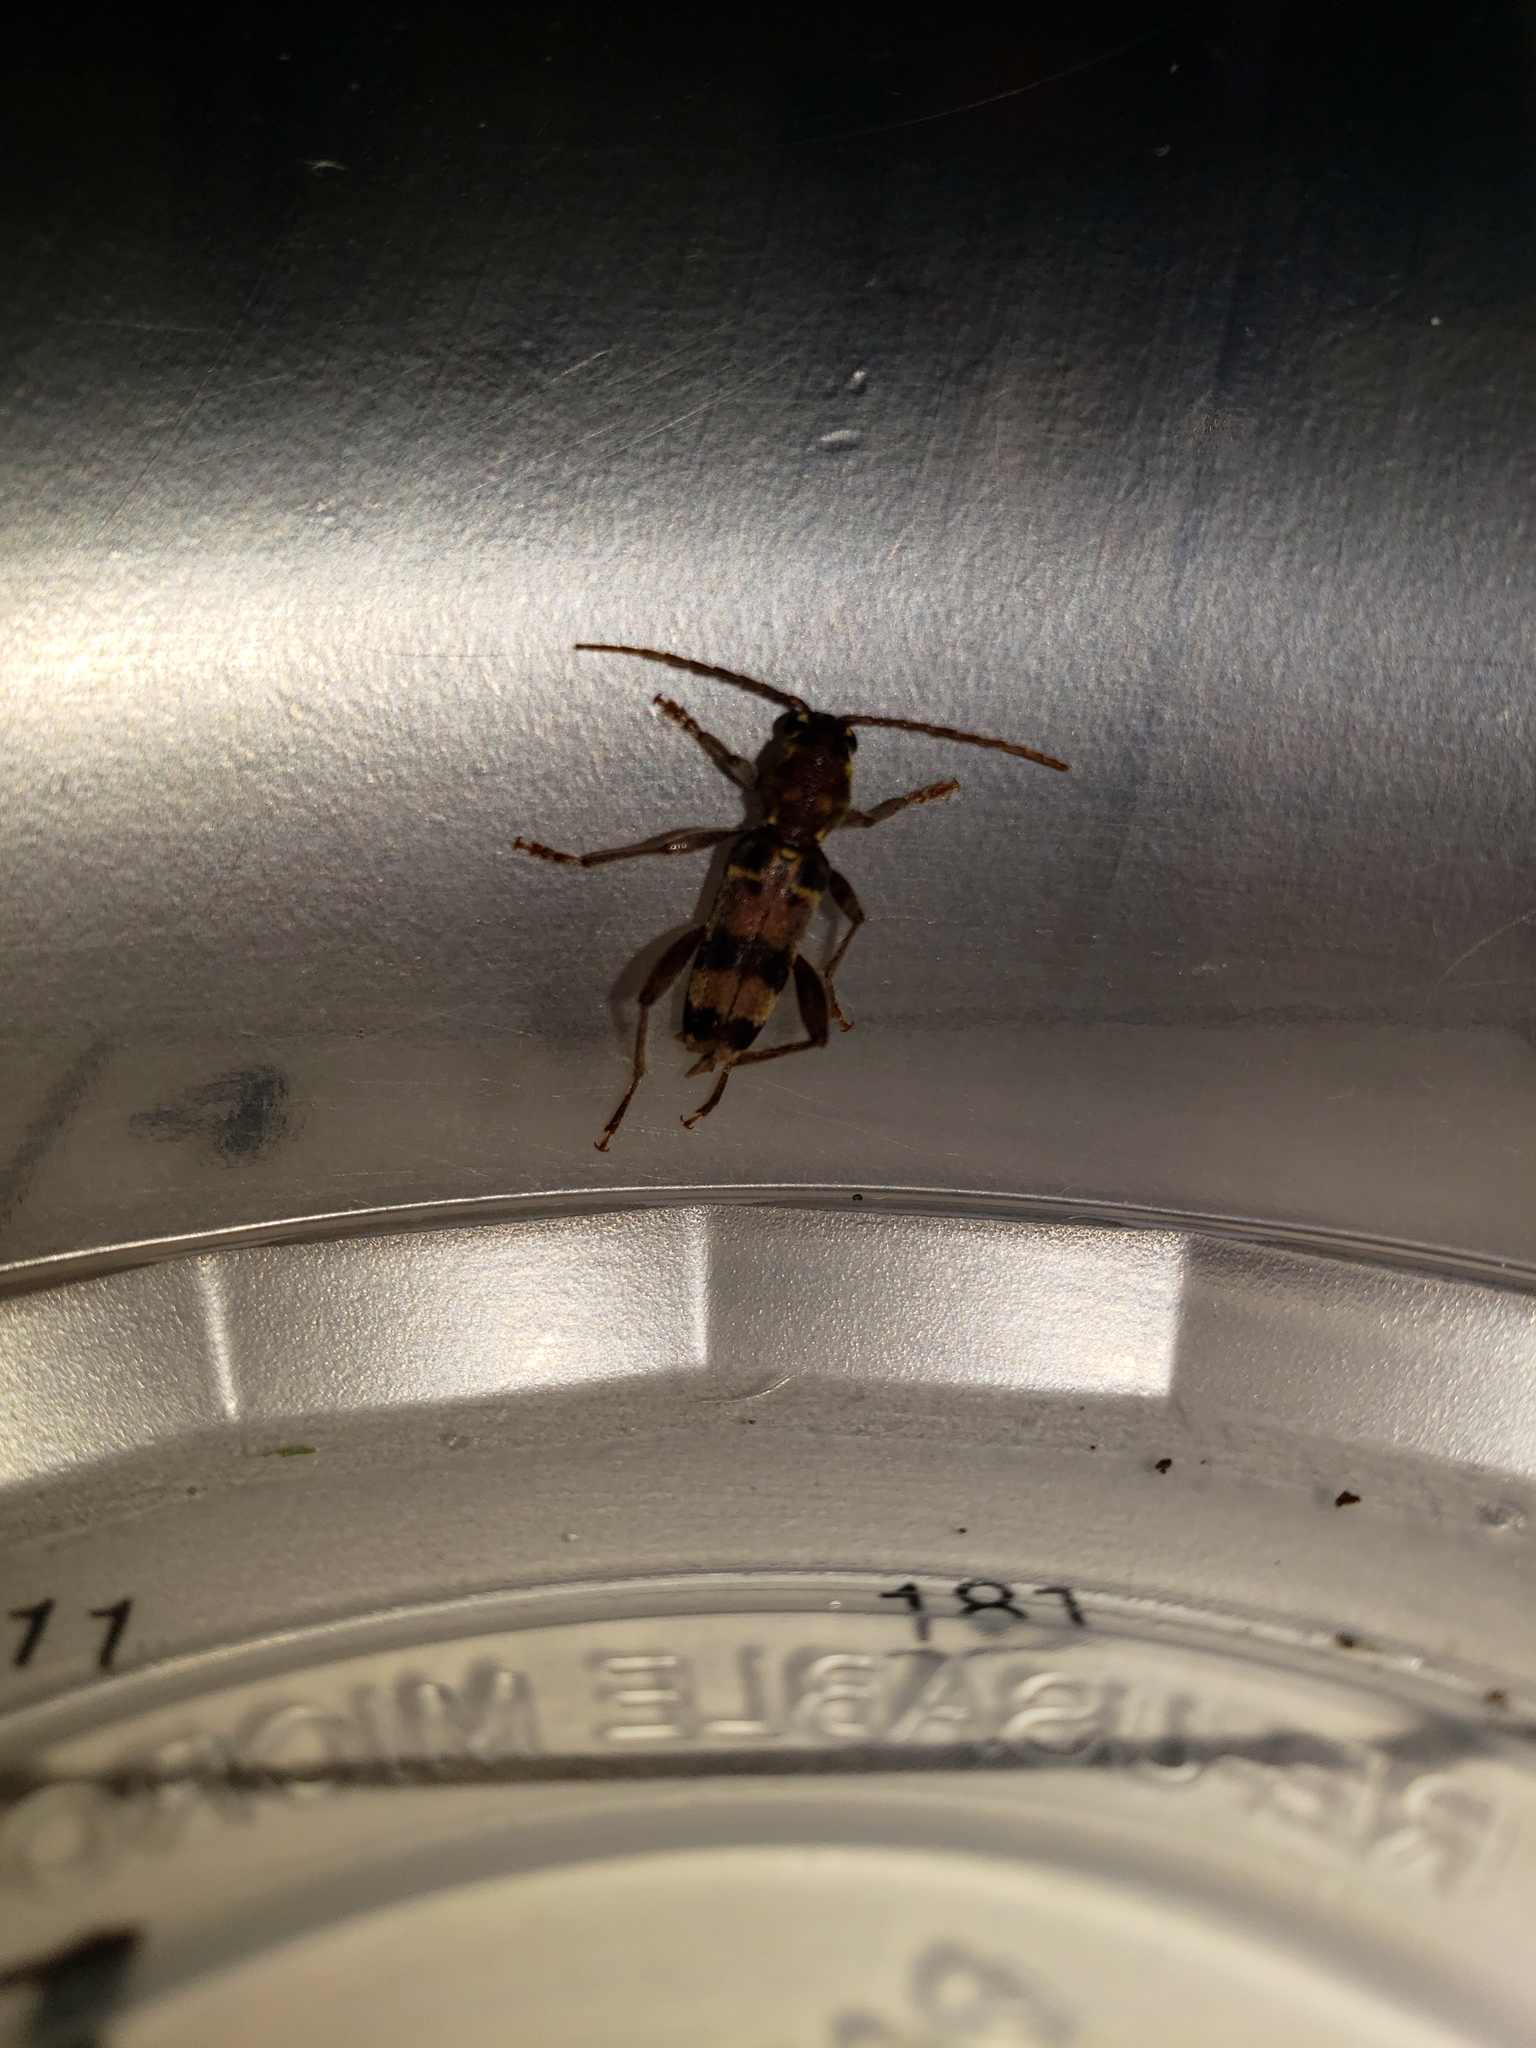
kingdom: Animalia
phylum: Arthropoda
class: Insecta
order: Coleoptera
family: Cerambycidae
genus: Xylotrechus
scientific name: Xylotrechus colonus
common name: Long-horned beetle
